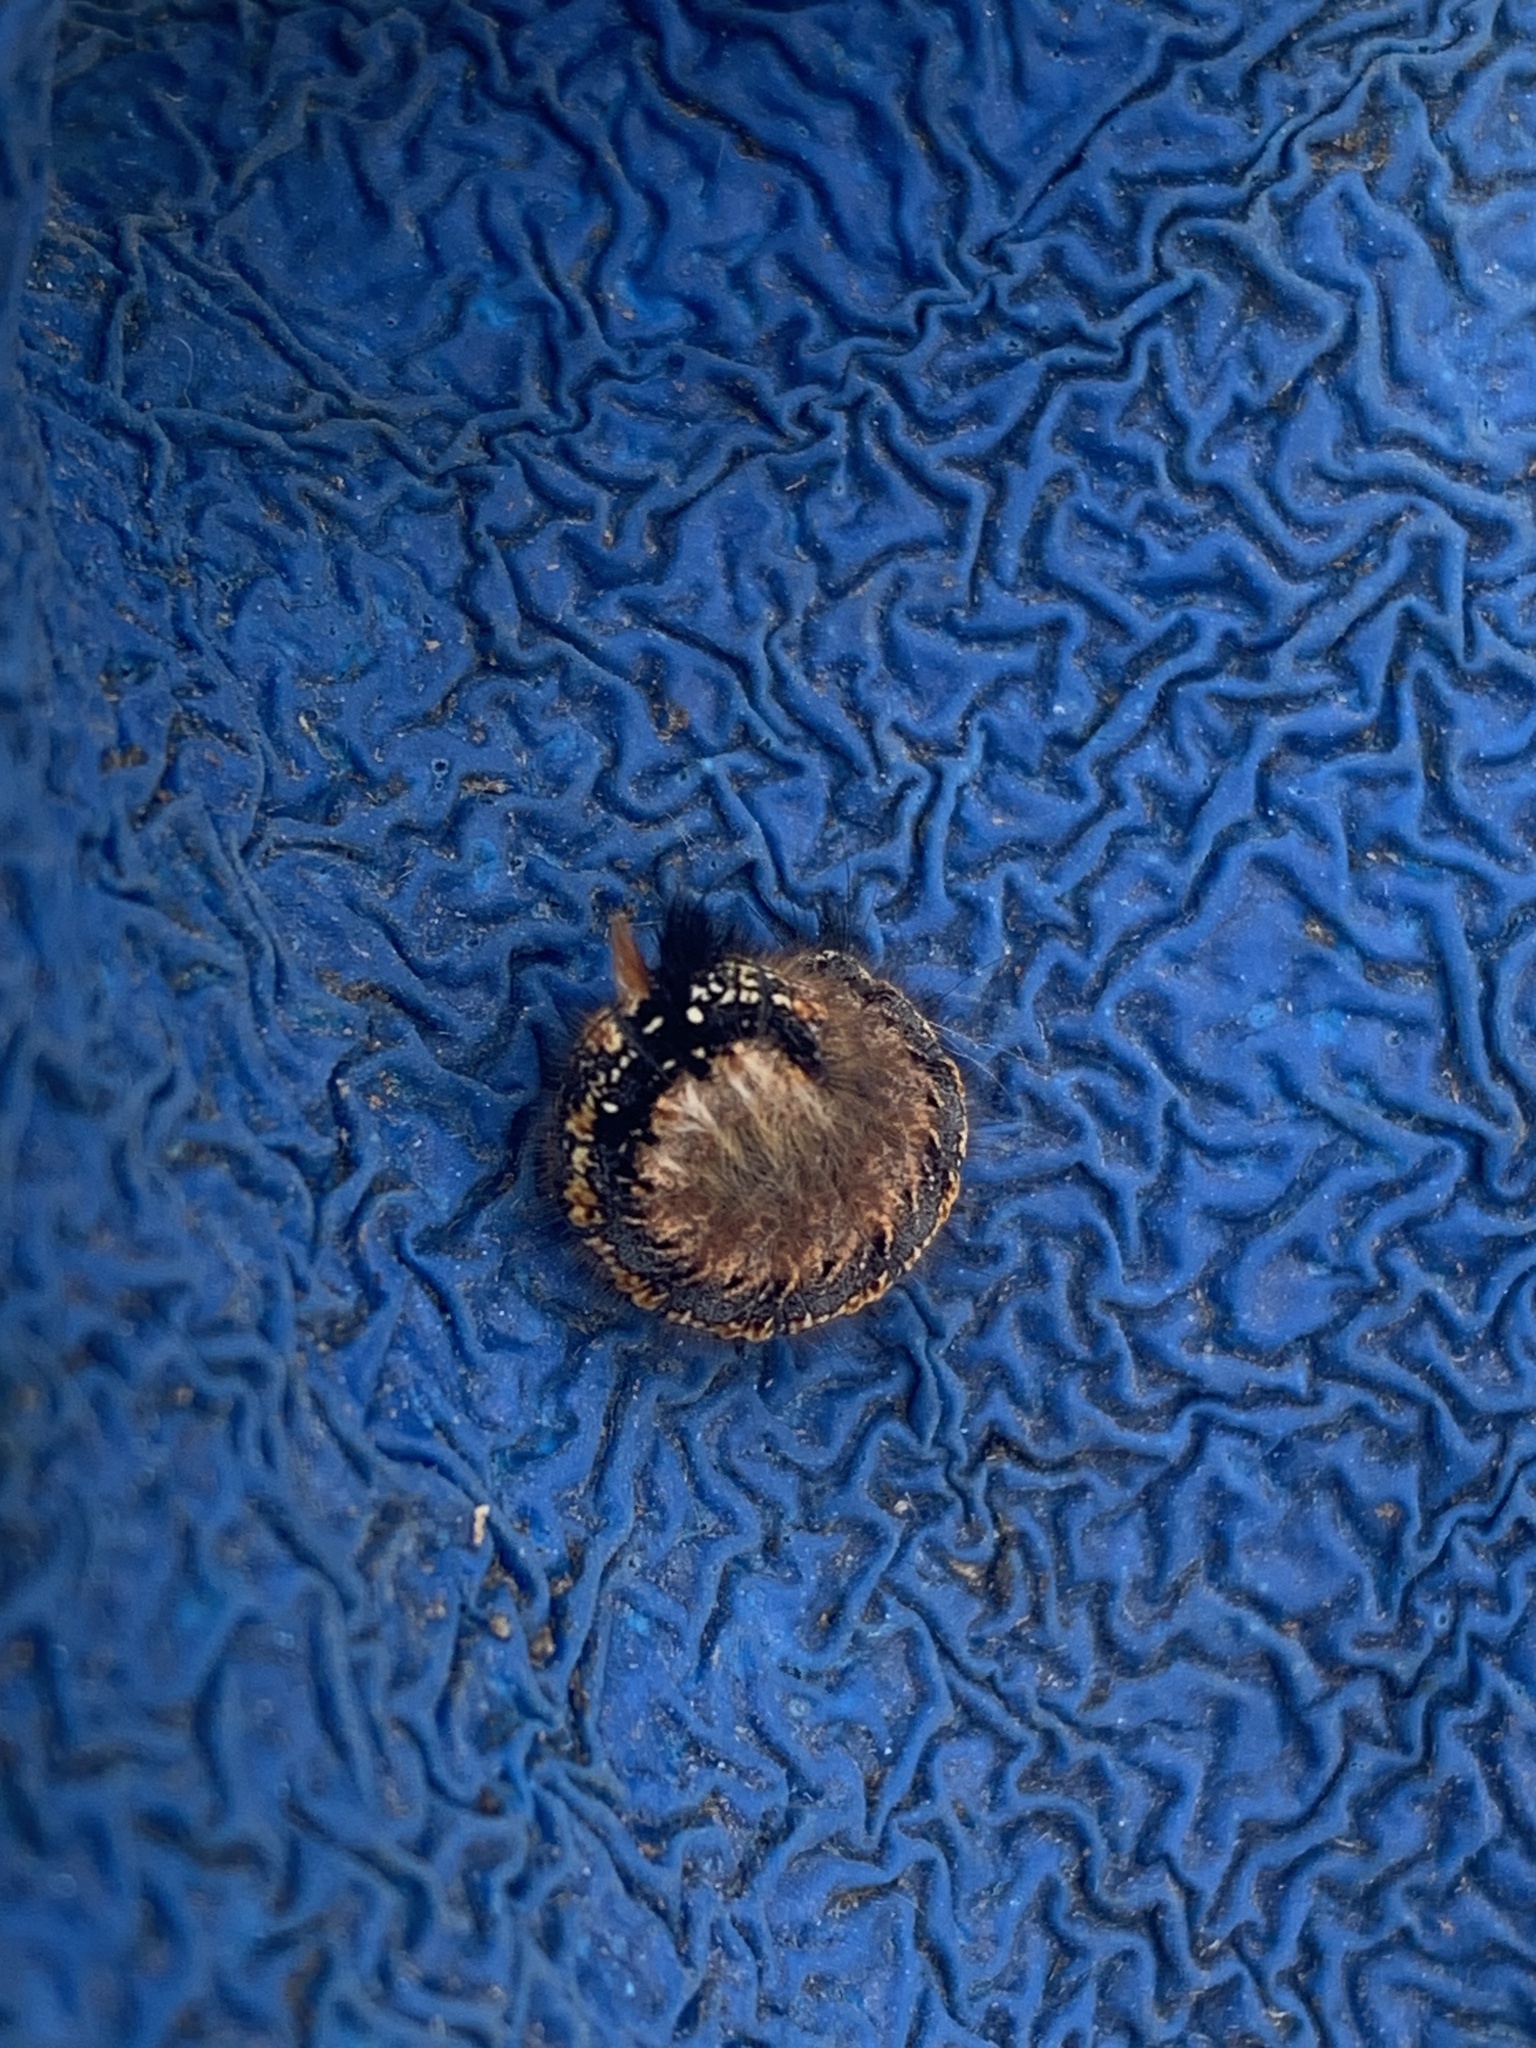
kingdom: Animalia
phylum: Arthropoda
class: Insecta
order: Lepidoptera
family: Lasiocampidae
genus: Euthrix
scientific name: Euthrix potatoria
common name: Drinker
